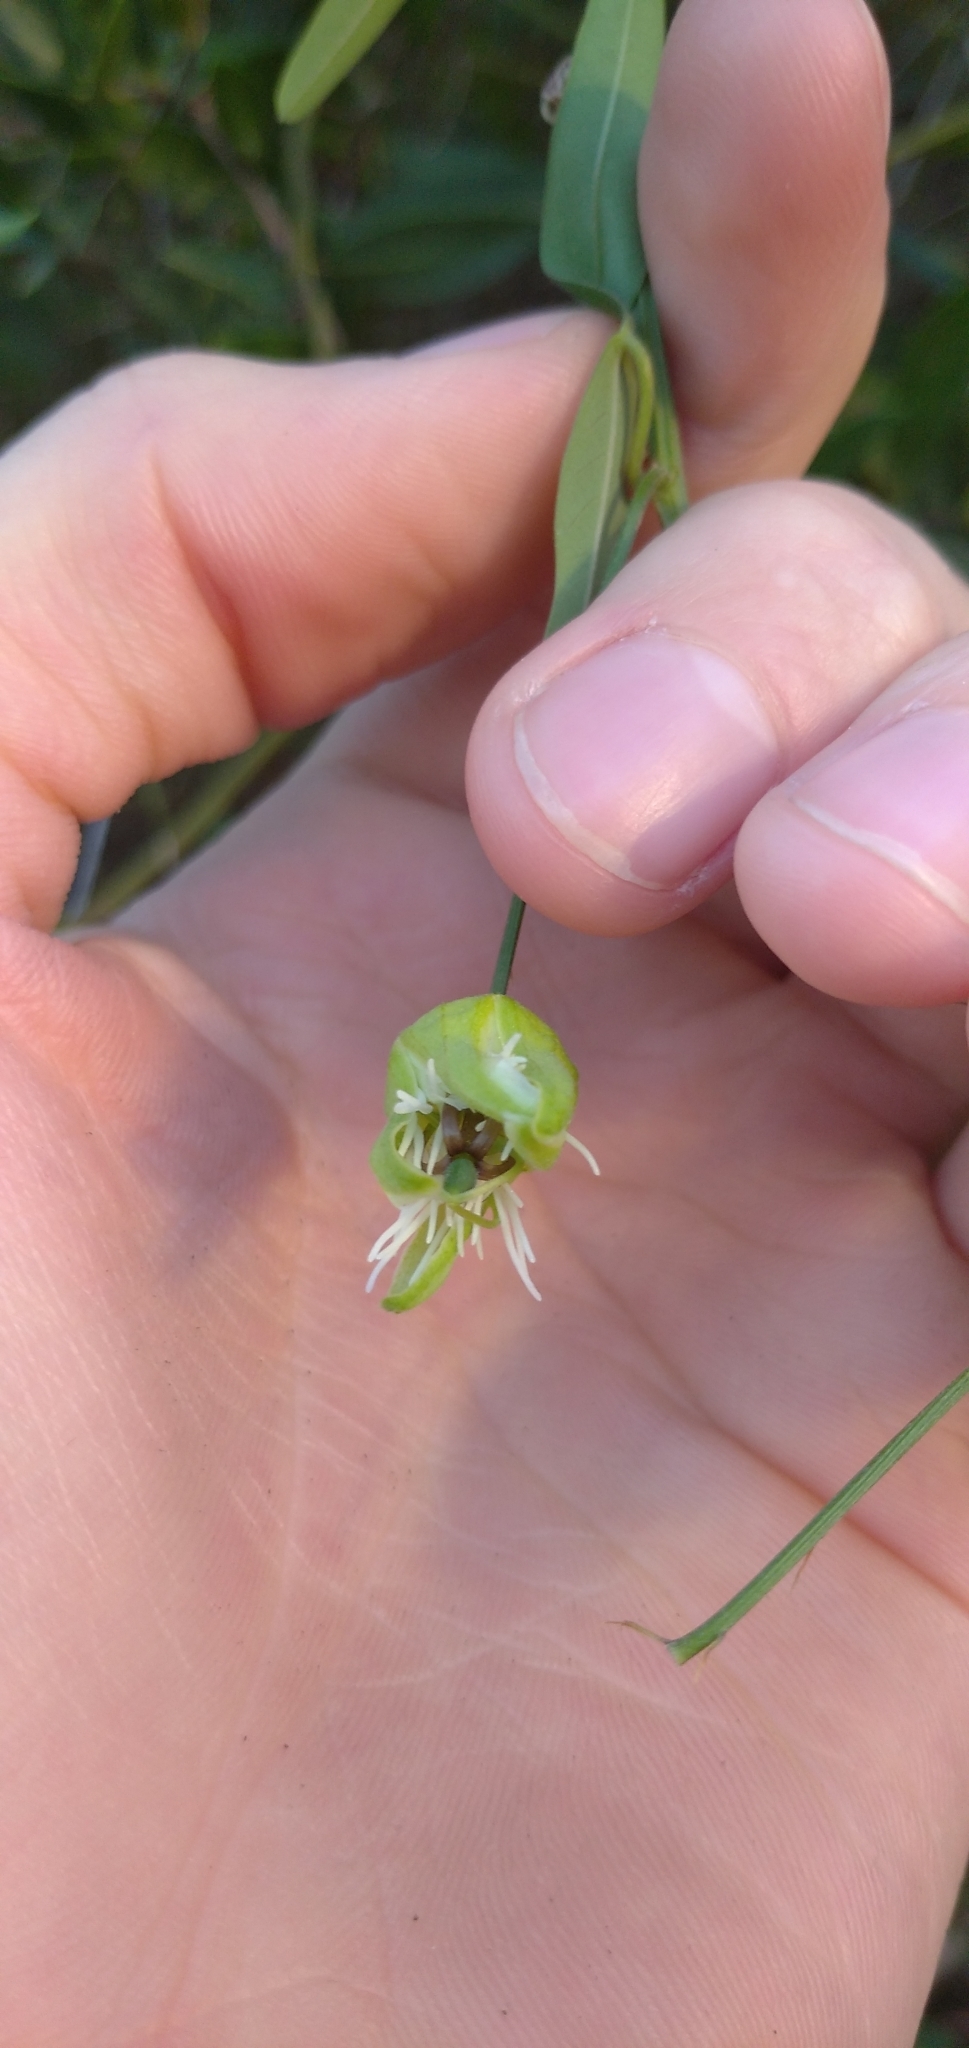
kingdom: Plantae
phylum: Tracheophyta
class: Magnoliopsida
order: Malpighiales
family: Passifloraceae
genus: Passiflora
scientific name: Passiflora misera
